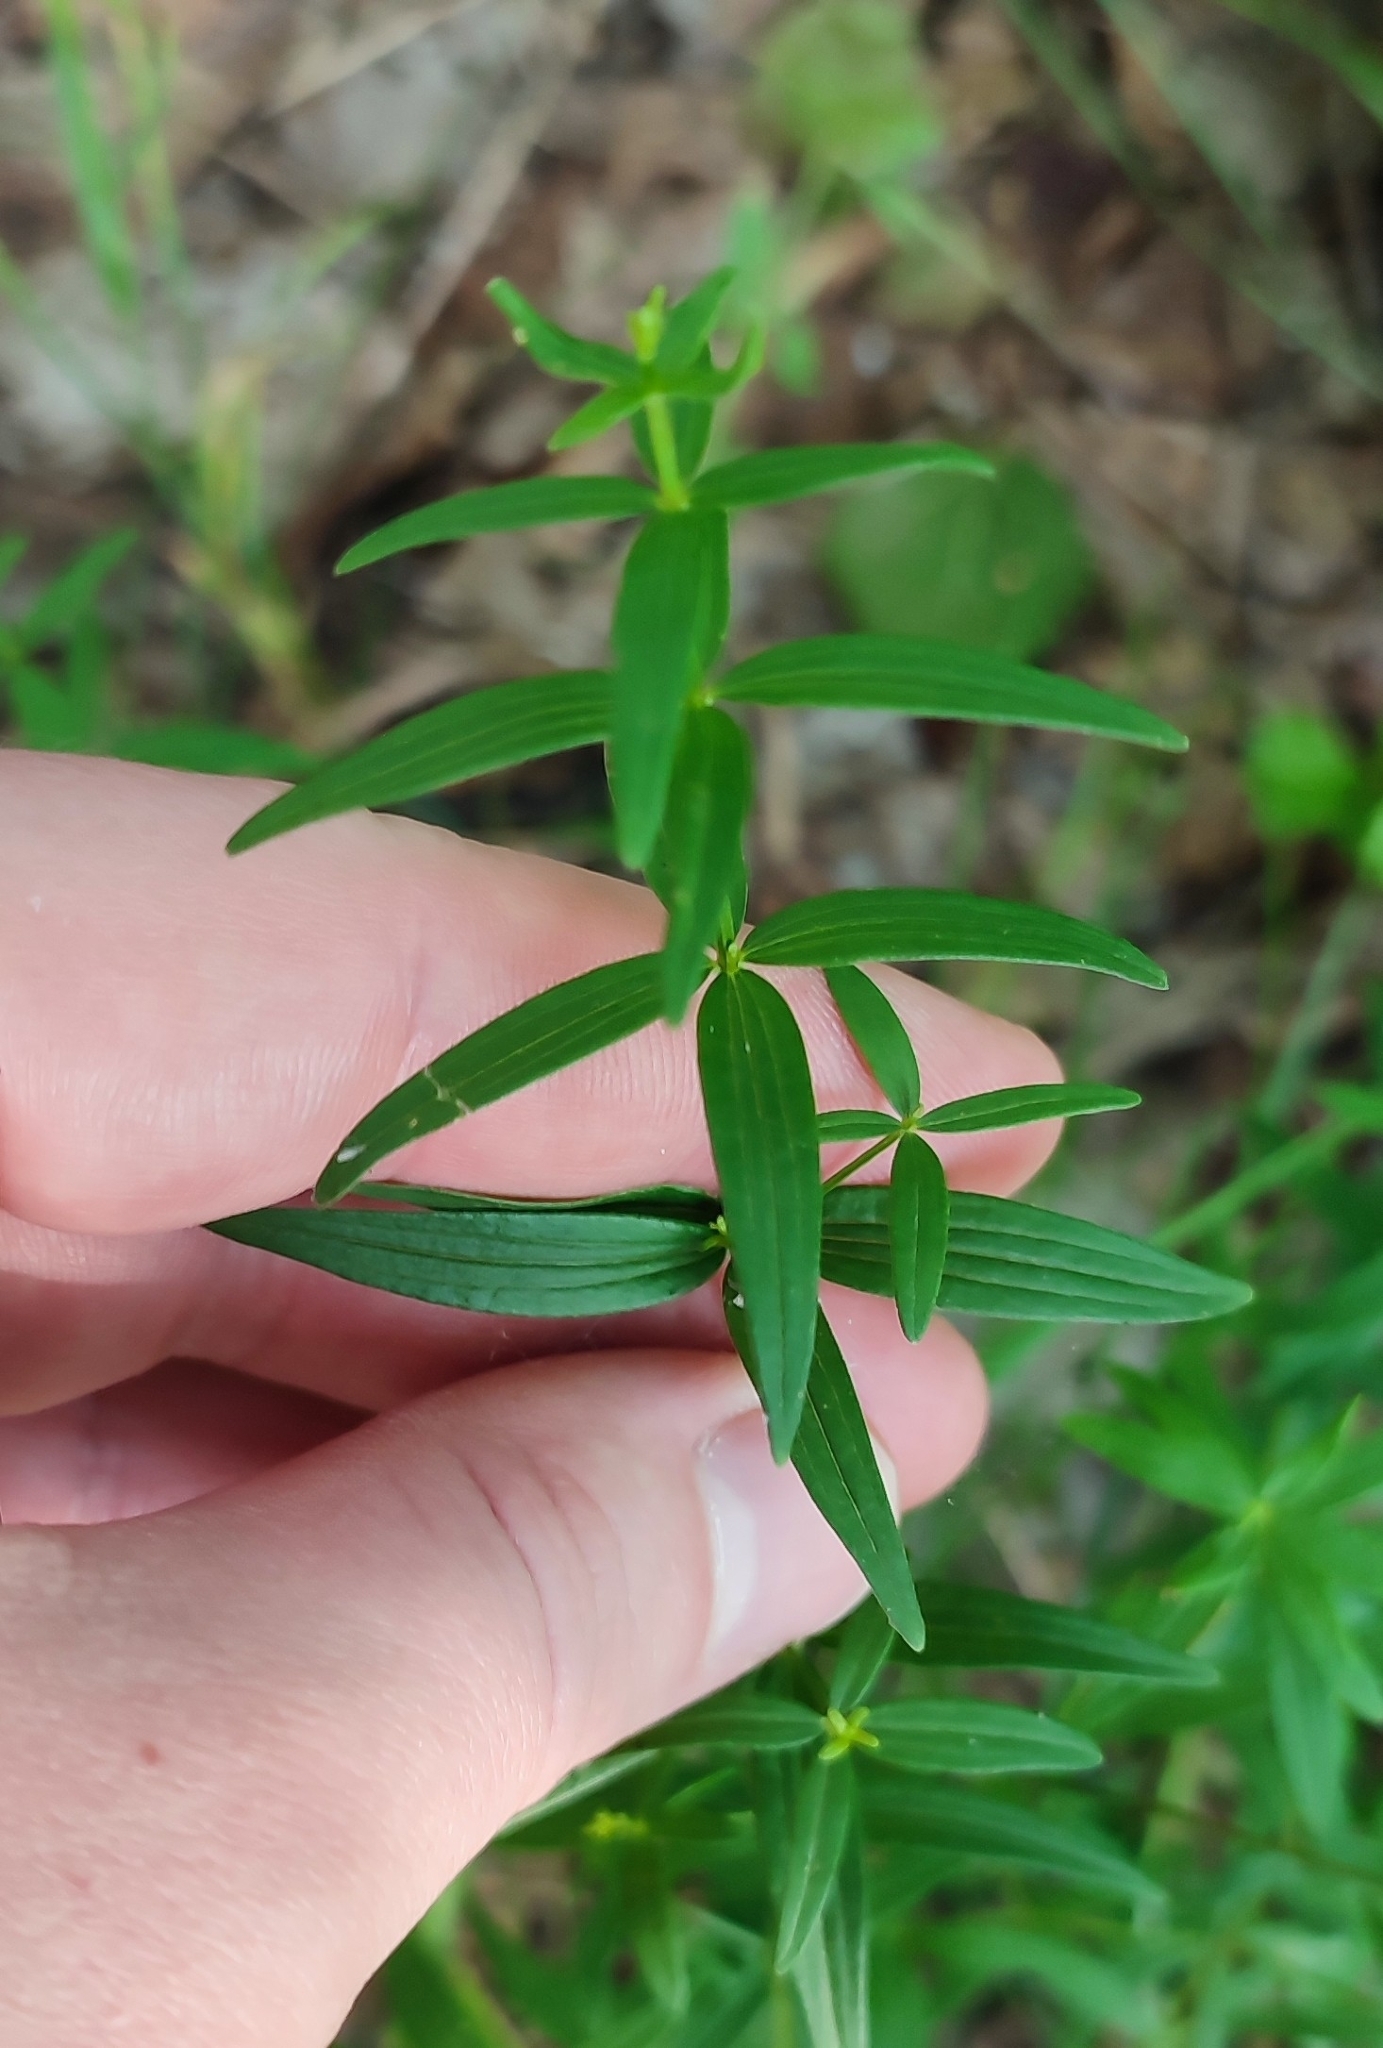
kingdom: Plantae
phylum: Tracheophyta
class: Magnoliopsida
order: Gentianales
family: Rubiaceae
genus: Galium
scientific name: Galium boreale
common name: Northern bedstraw
